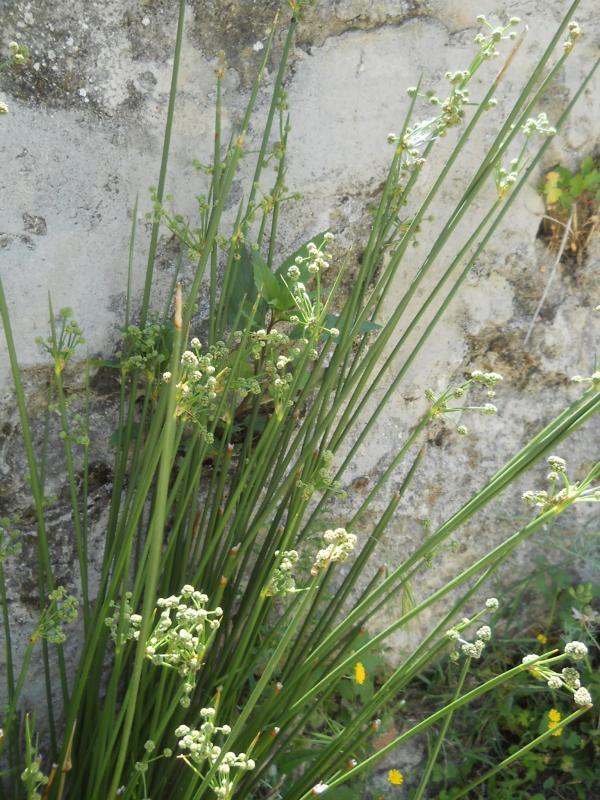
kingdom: Plantae
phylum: Tracheophyta
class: Liliopsida
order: Poales
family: Cyperaceae
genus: Scirpoides
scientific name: Scirpoides holoschoenus
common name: Round-headed club-rush
